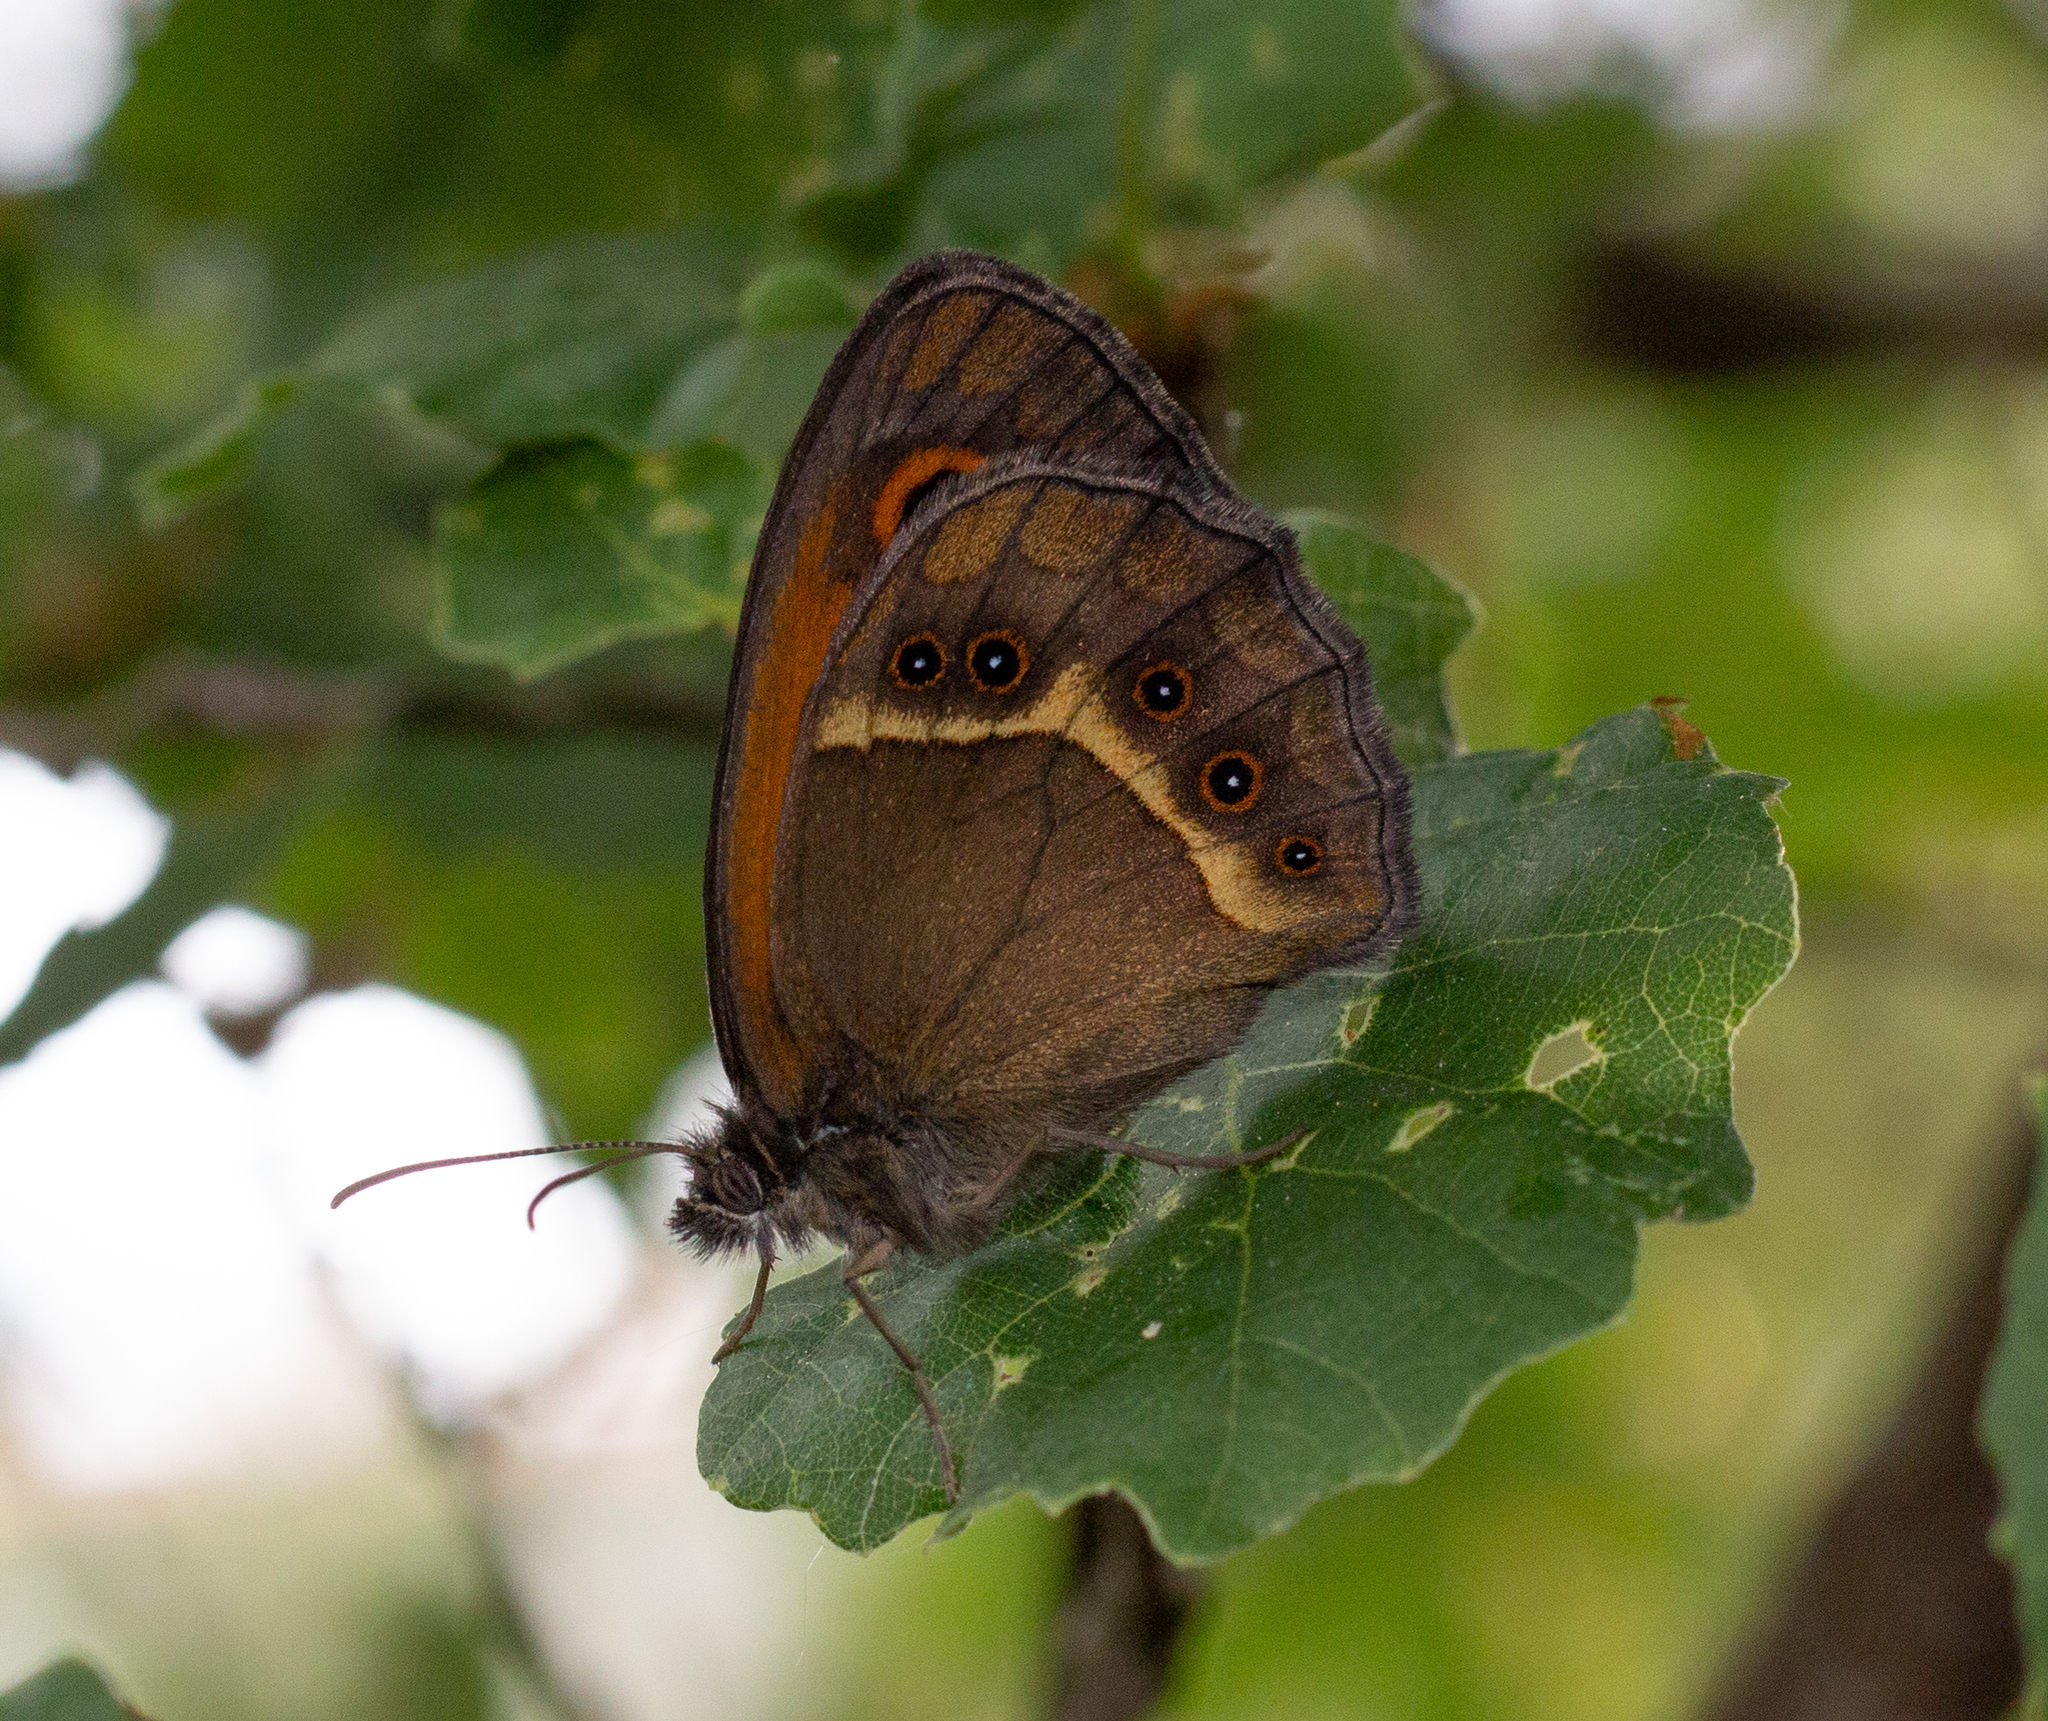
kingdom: Animalia
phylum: Arthropoda
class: Insecta
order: Lepidoptera
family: Nymphalidae
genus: Pyronia
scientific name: Pyronia bathseba
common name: Spanish gatekeeper
